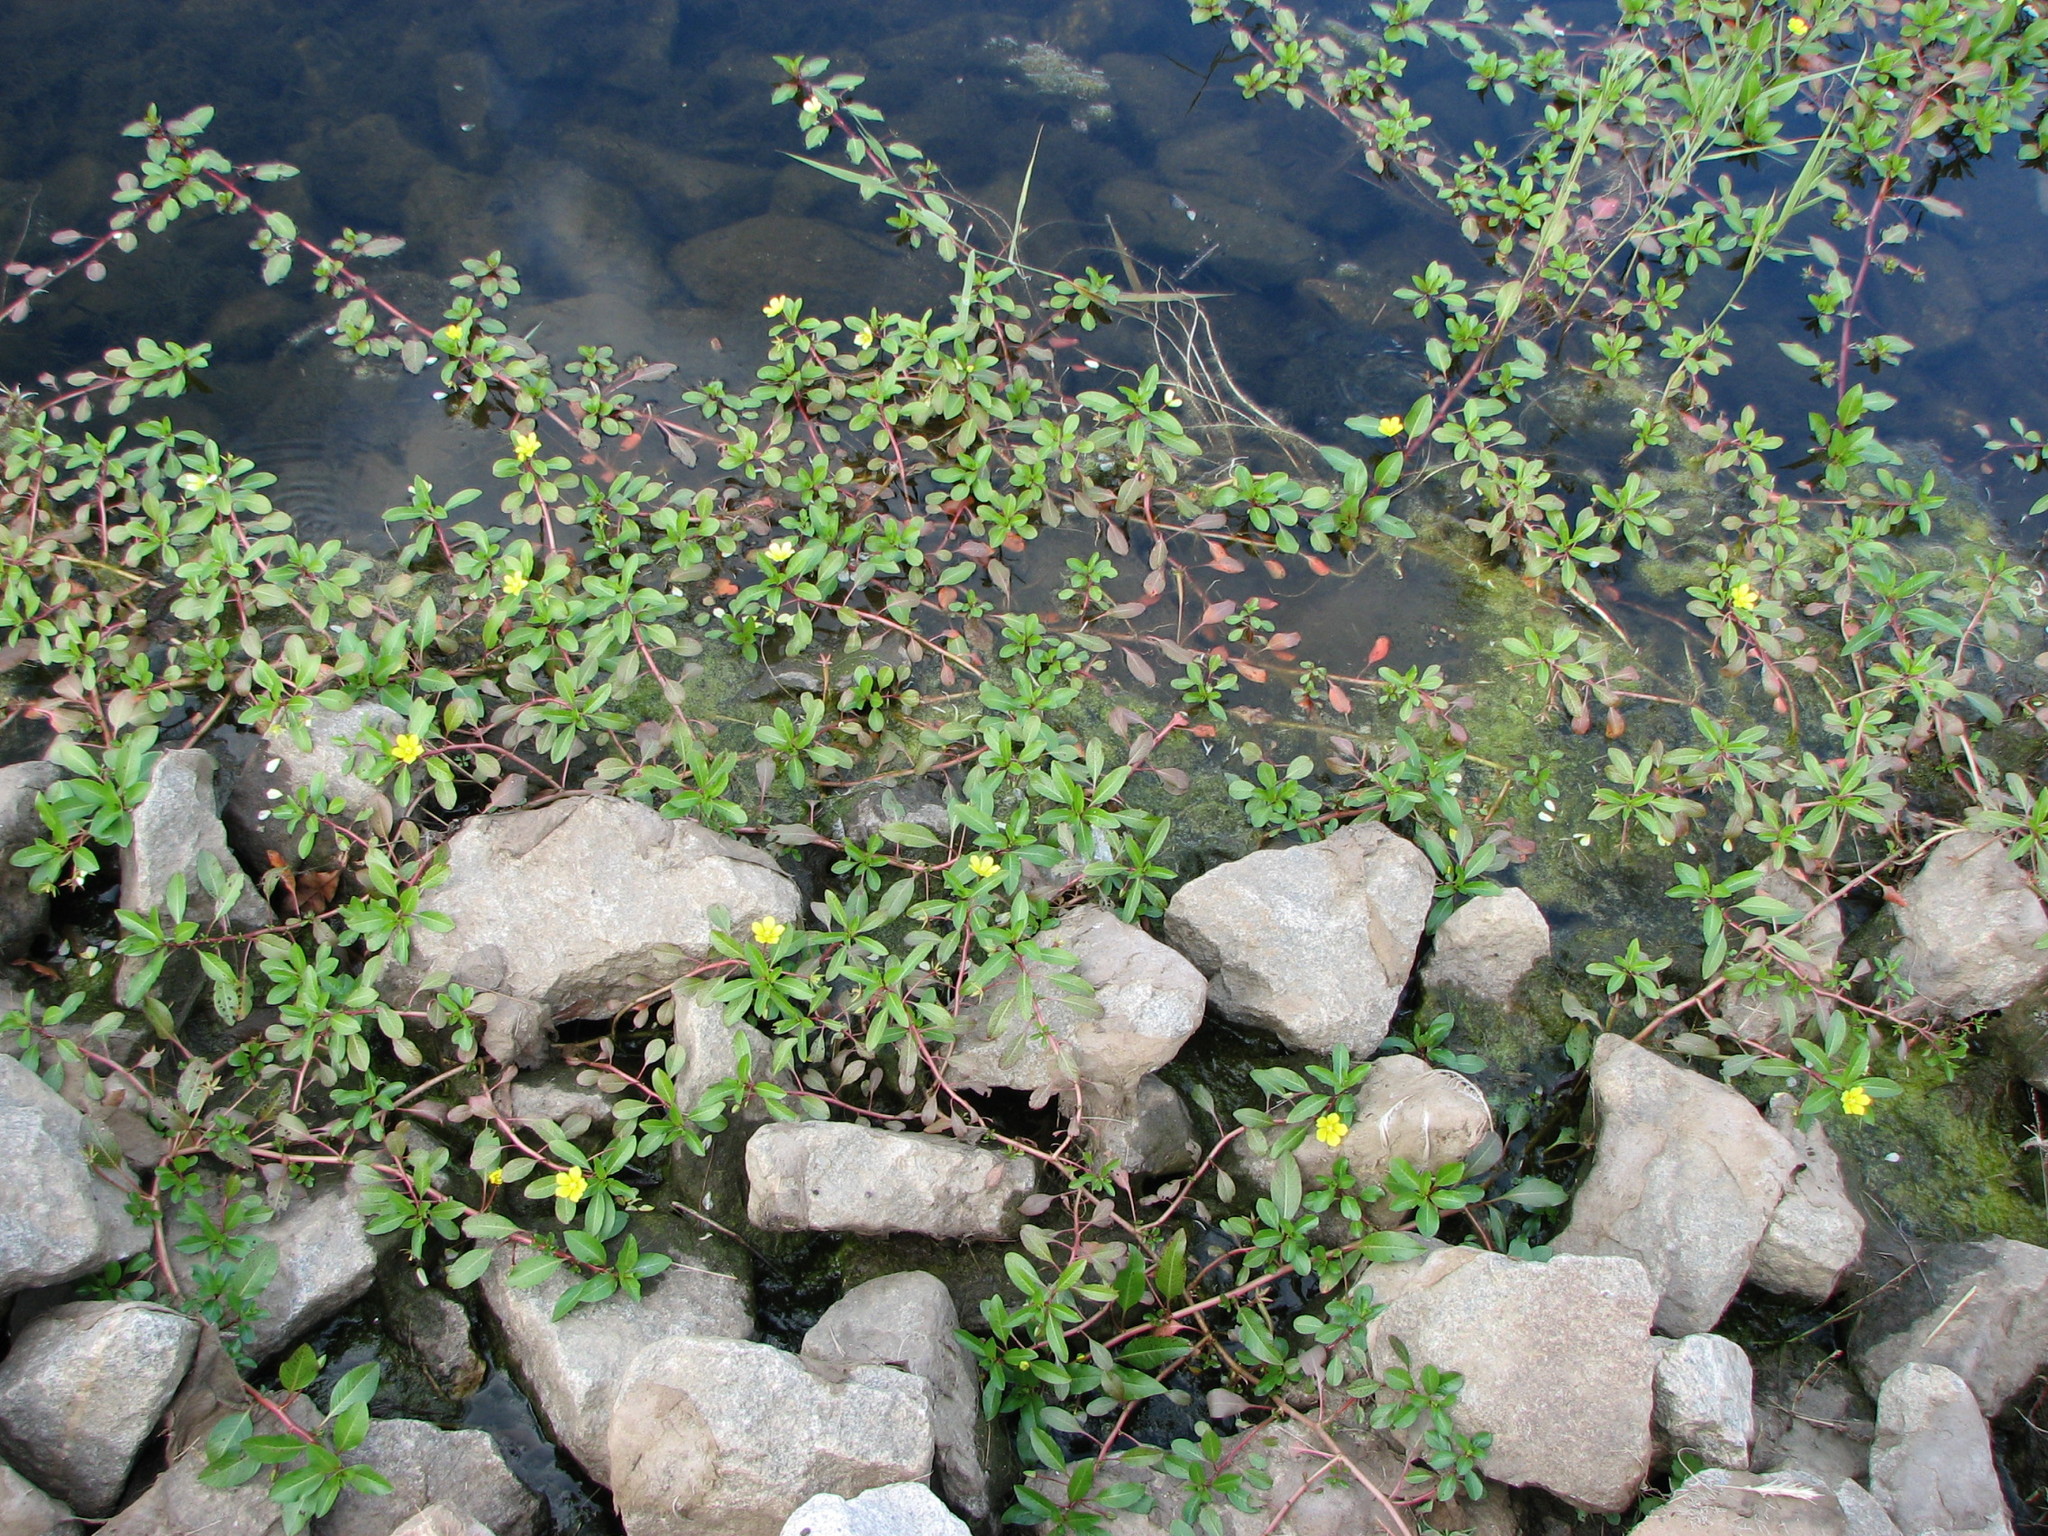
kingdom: Plantae
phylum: Tracheophyta
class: Magnoliopsida
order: Myrtales
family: Onagraceae
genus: Ludwigia
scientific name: Ludwigia peploides
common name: Floating primrose-willow
